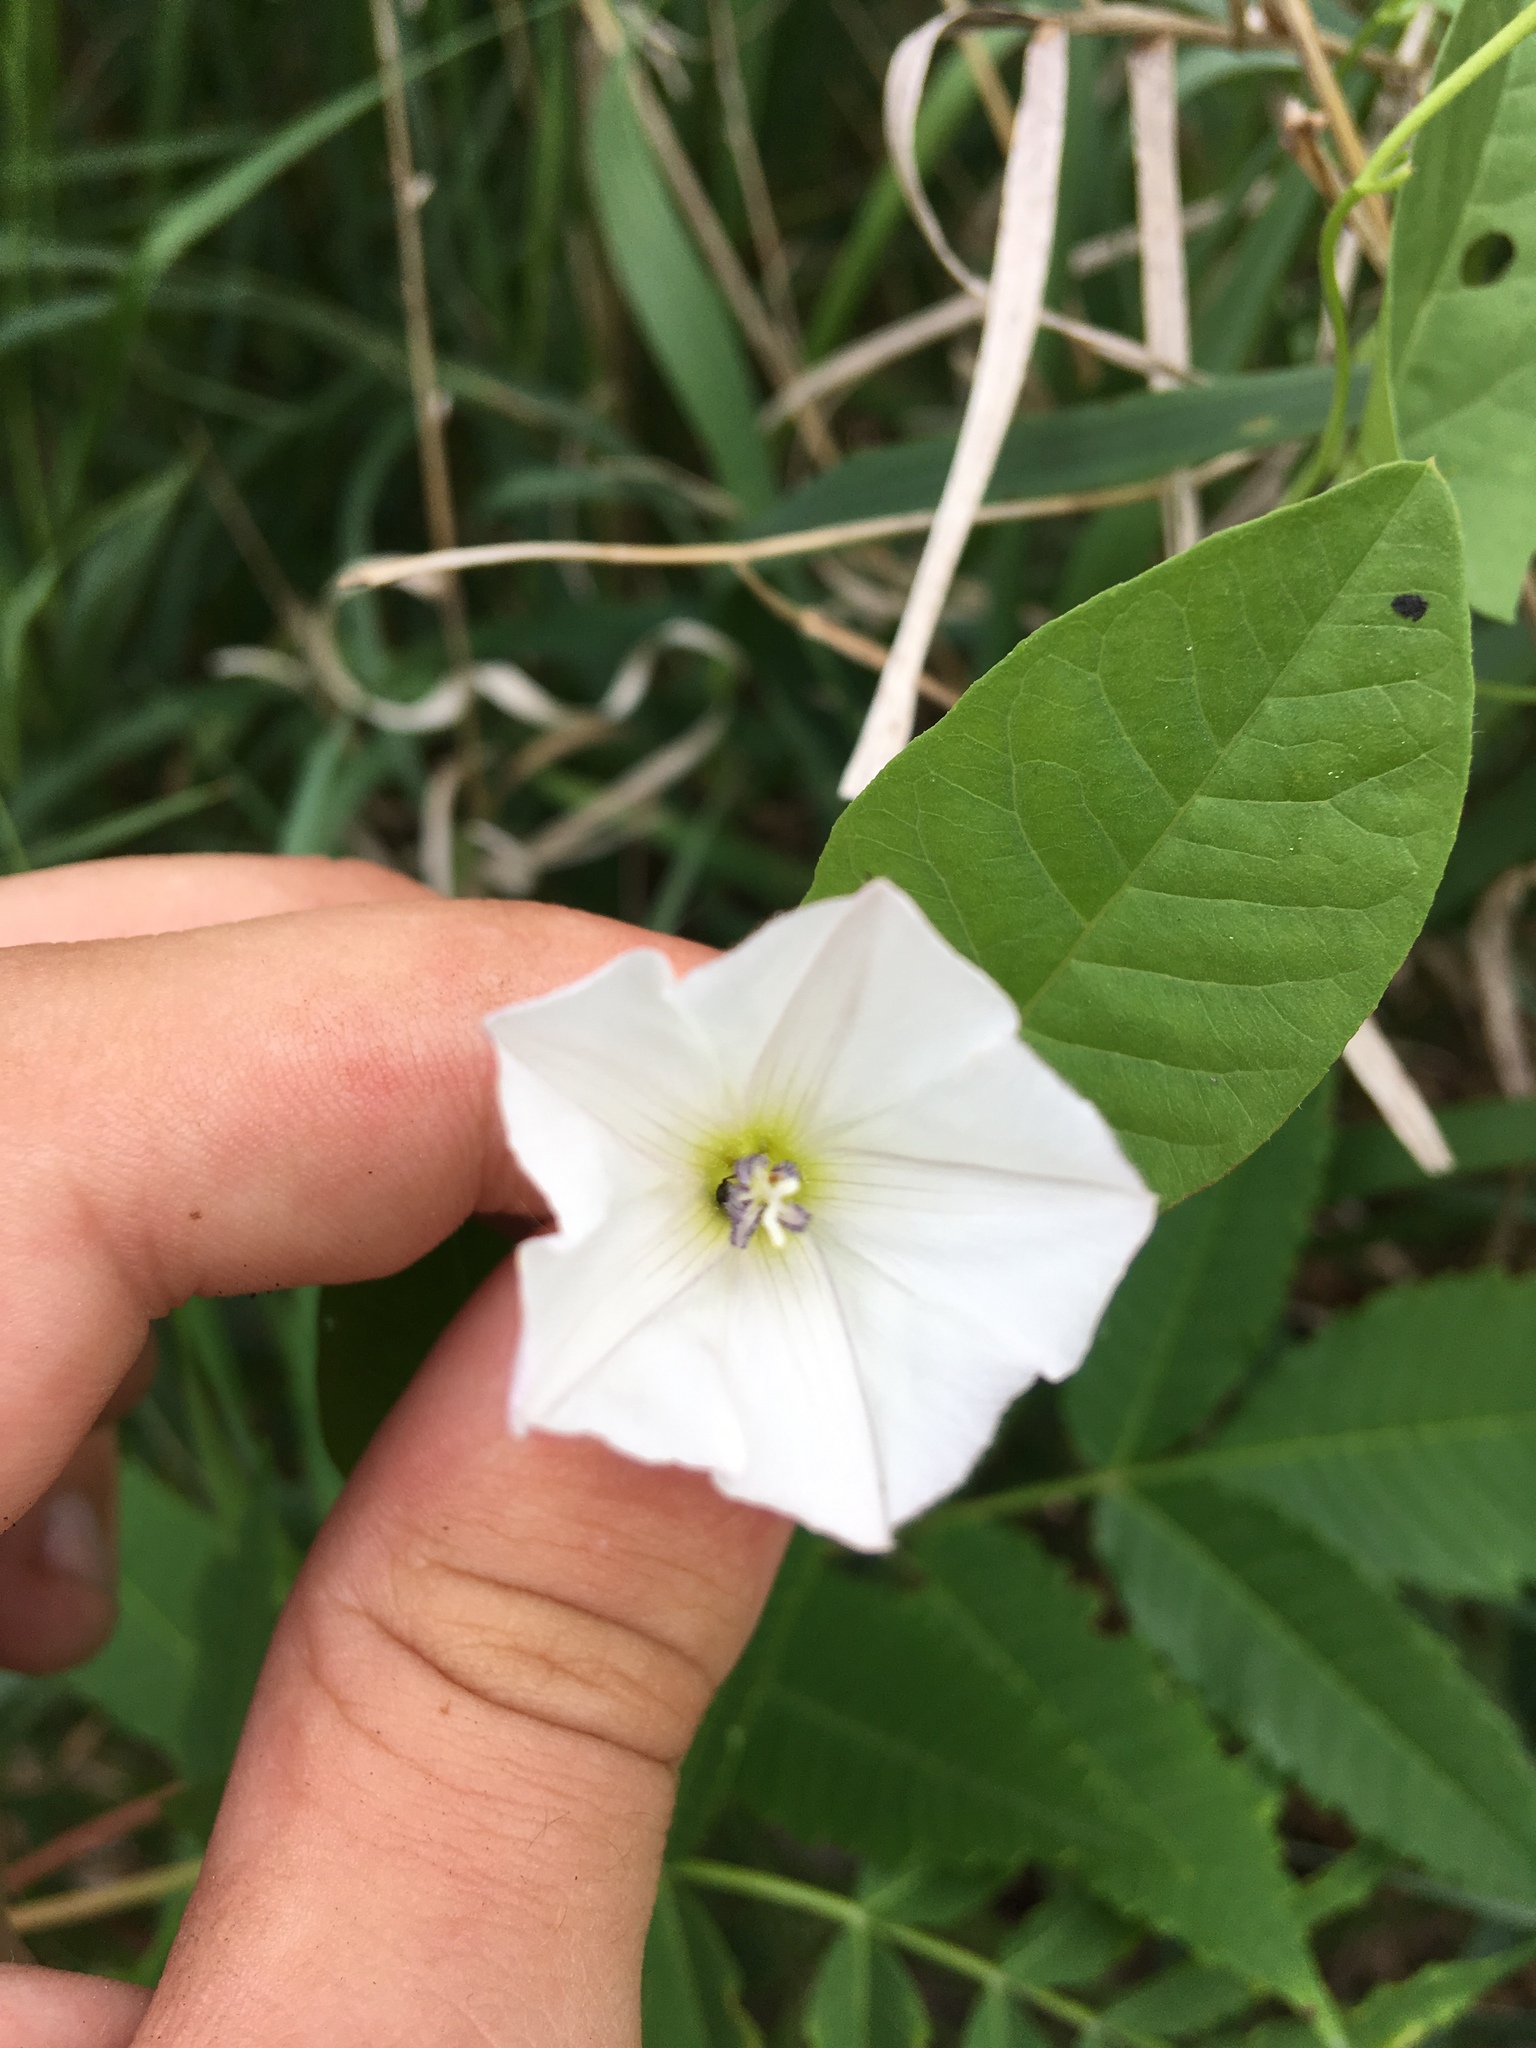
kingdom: Plantae
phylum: Tracheophyta
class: Magnoliopsida
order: Solanales
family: Convolvulaceae
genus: Convolvulus
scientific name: Convolvulus arvensis
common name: Field bindweed
